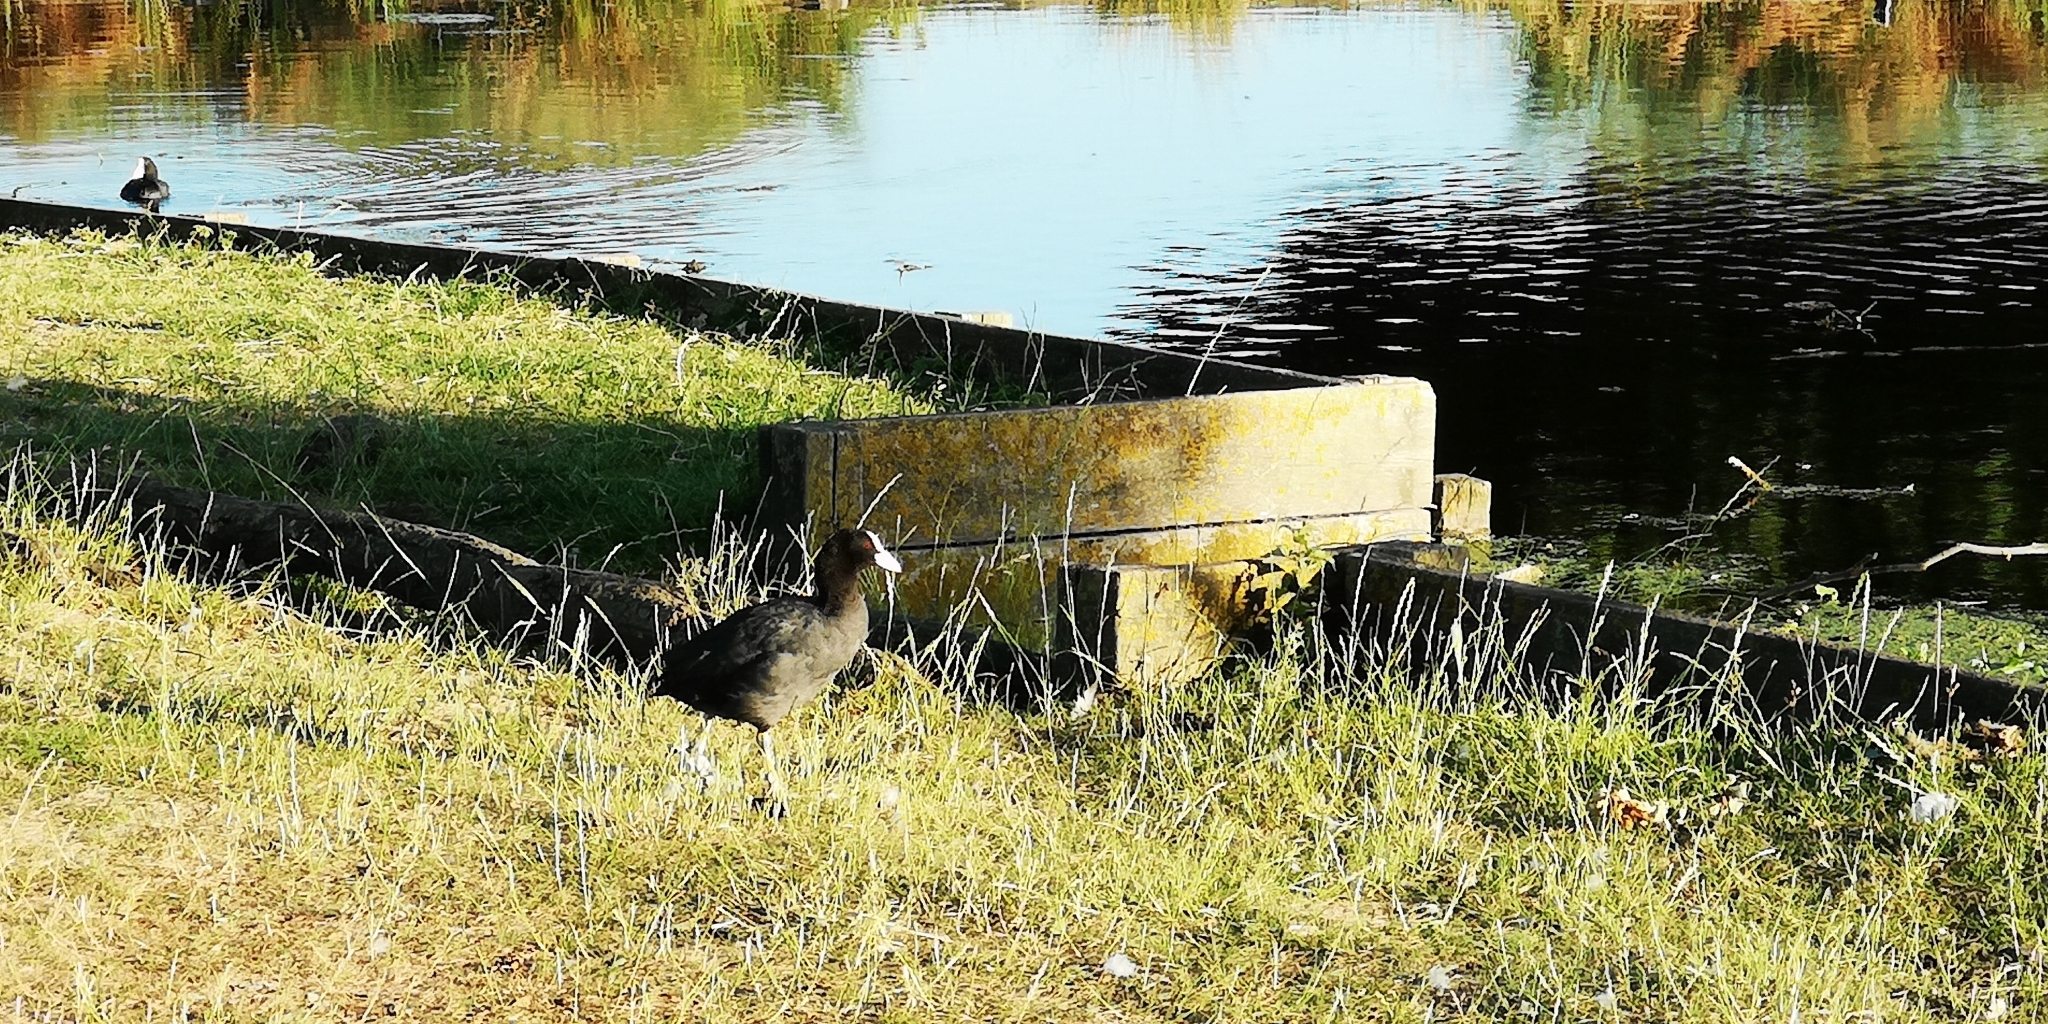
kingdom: Animalia
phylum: Chordata
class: Aves
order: Gruiformes
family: Rallidae
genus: Fulica
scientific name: Fulica atra
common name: Eurasian coot
